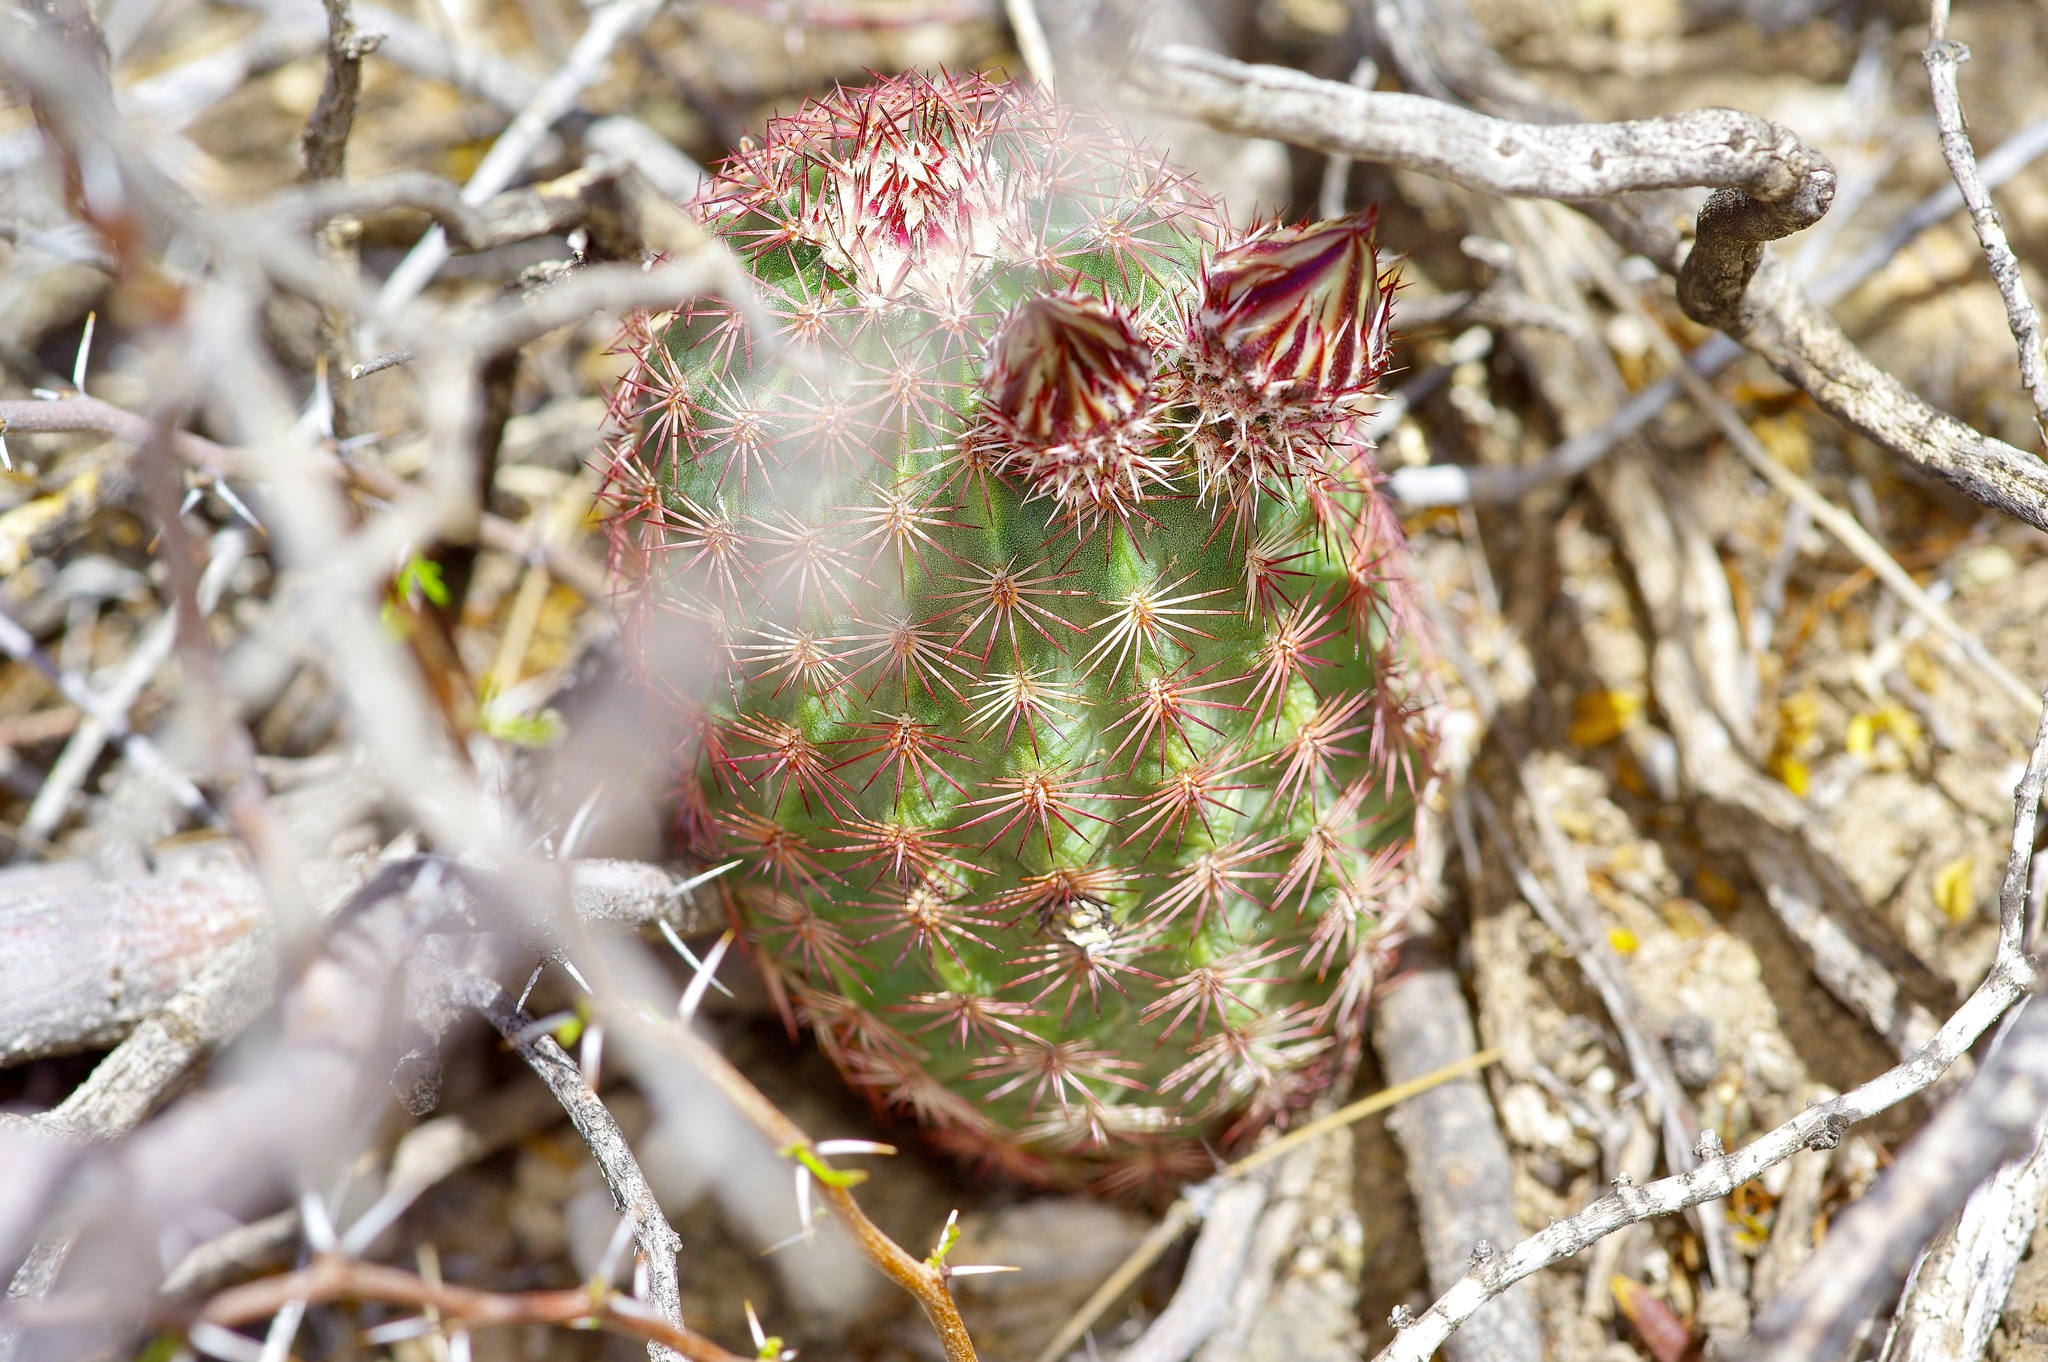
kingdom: Plantae
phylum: Tracheophyta
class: Magnoliopsida
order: Caryophyllales
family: Cactaceae
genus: Echinocereus
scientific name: Echinocereus
